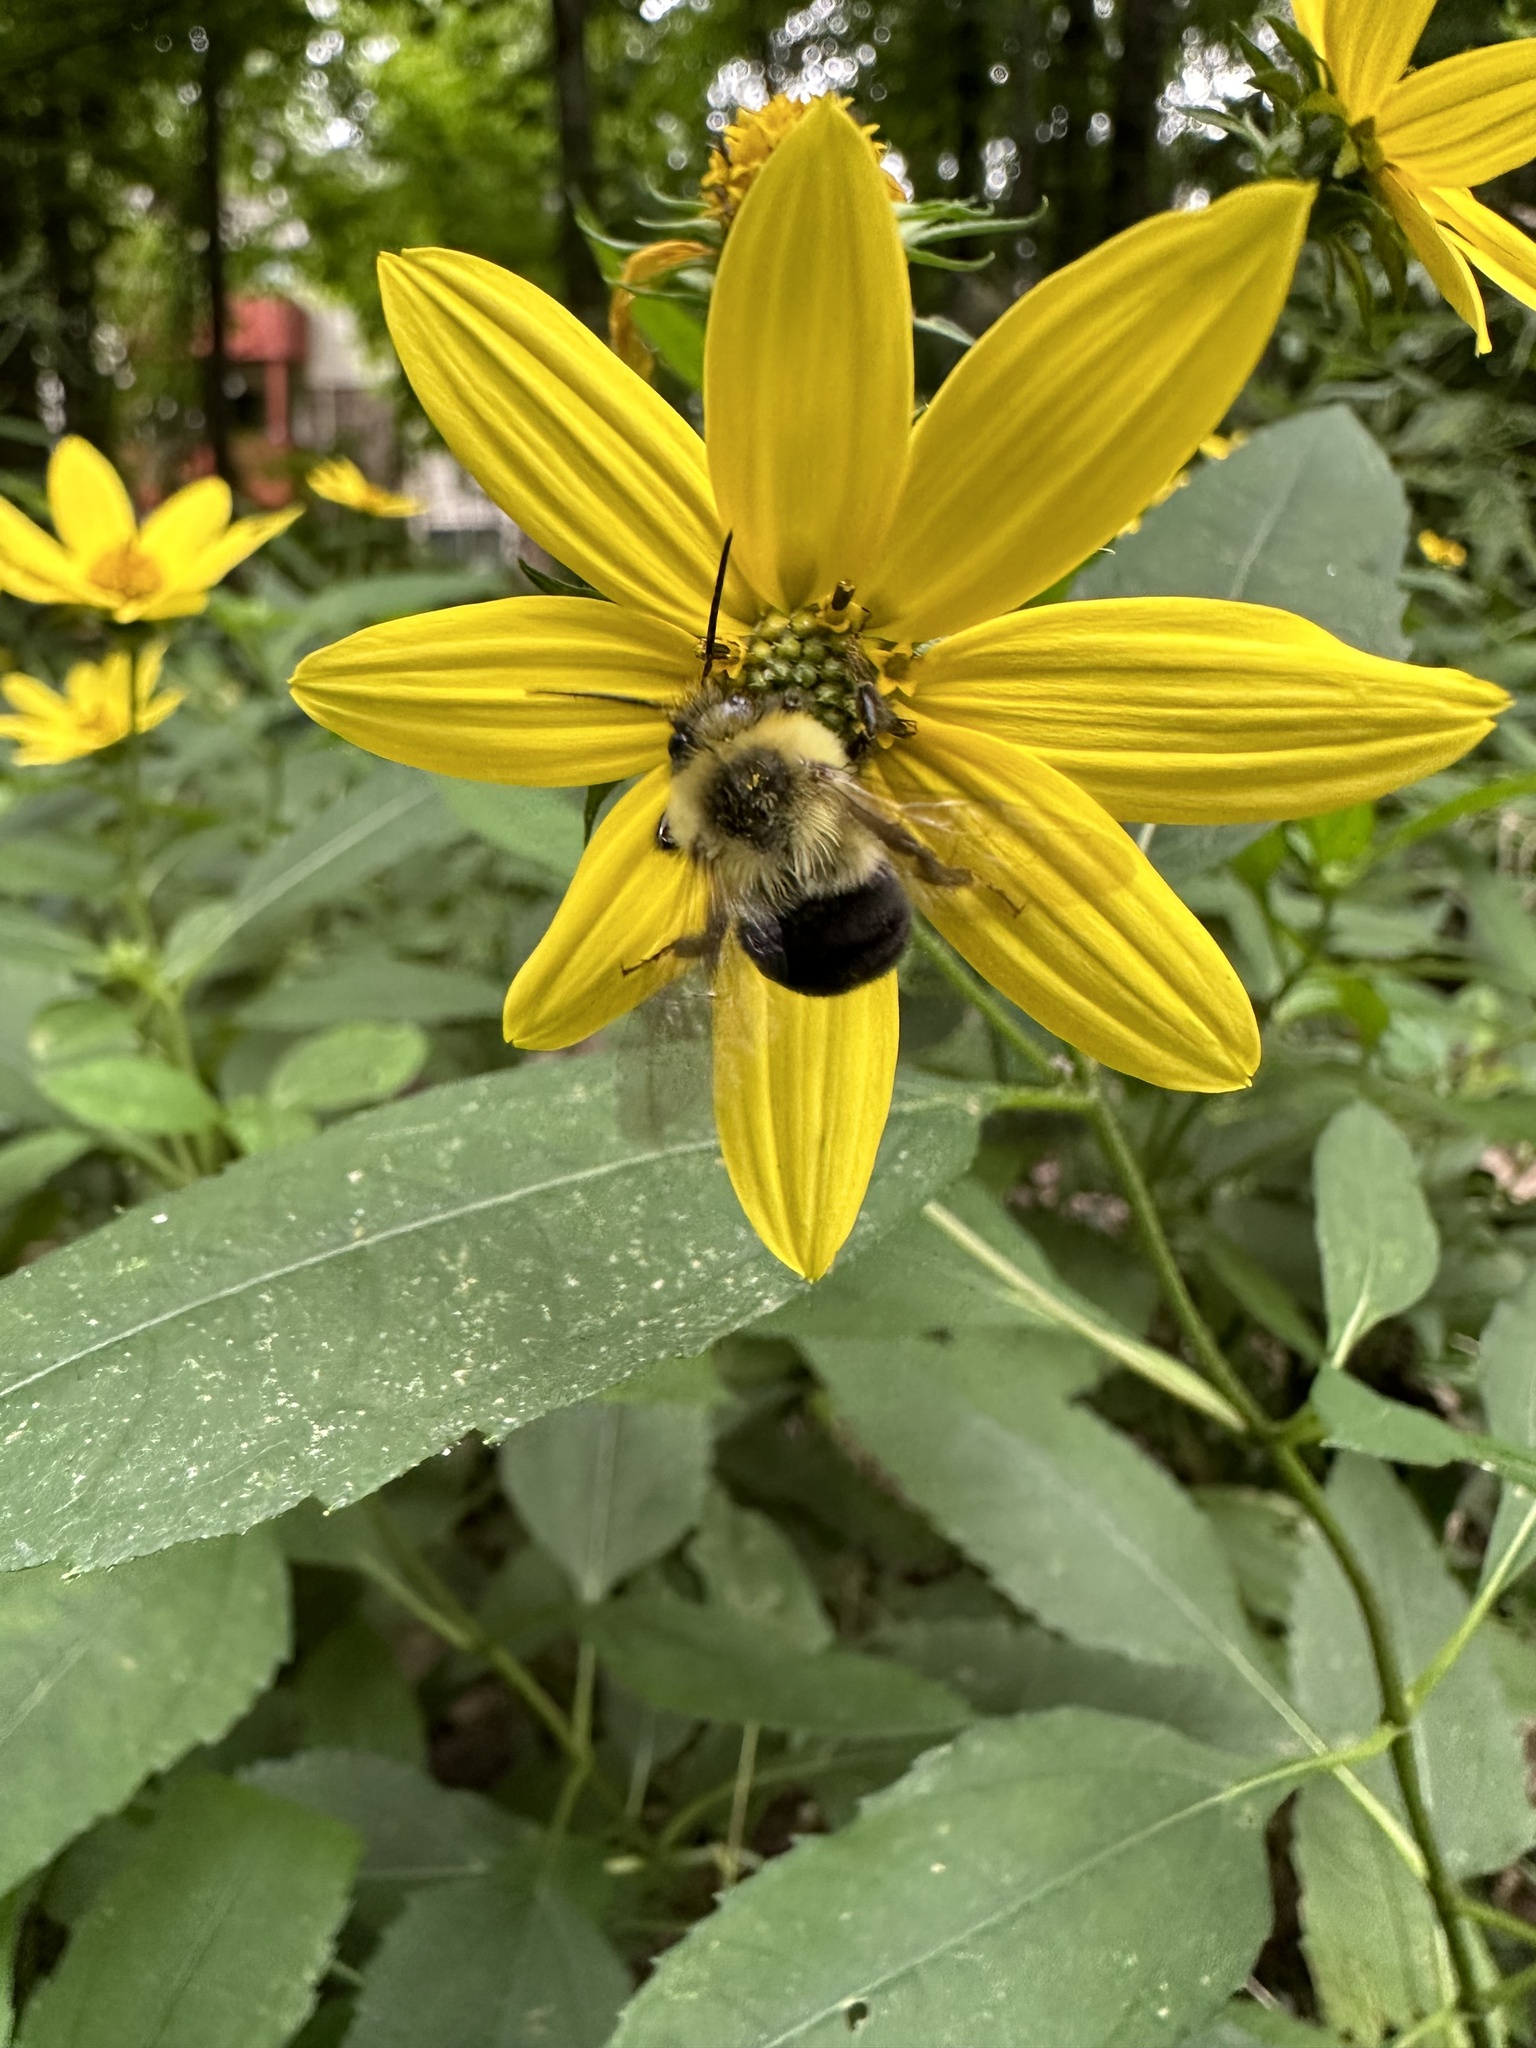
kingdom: Animalia
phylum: Arthropoda
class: Insecta
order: Hymenoptera
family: Apidae
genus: Bombus
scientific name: Bombus impatiens
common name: Common eastern bumble bee
